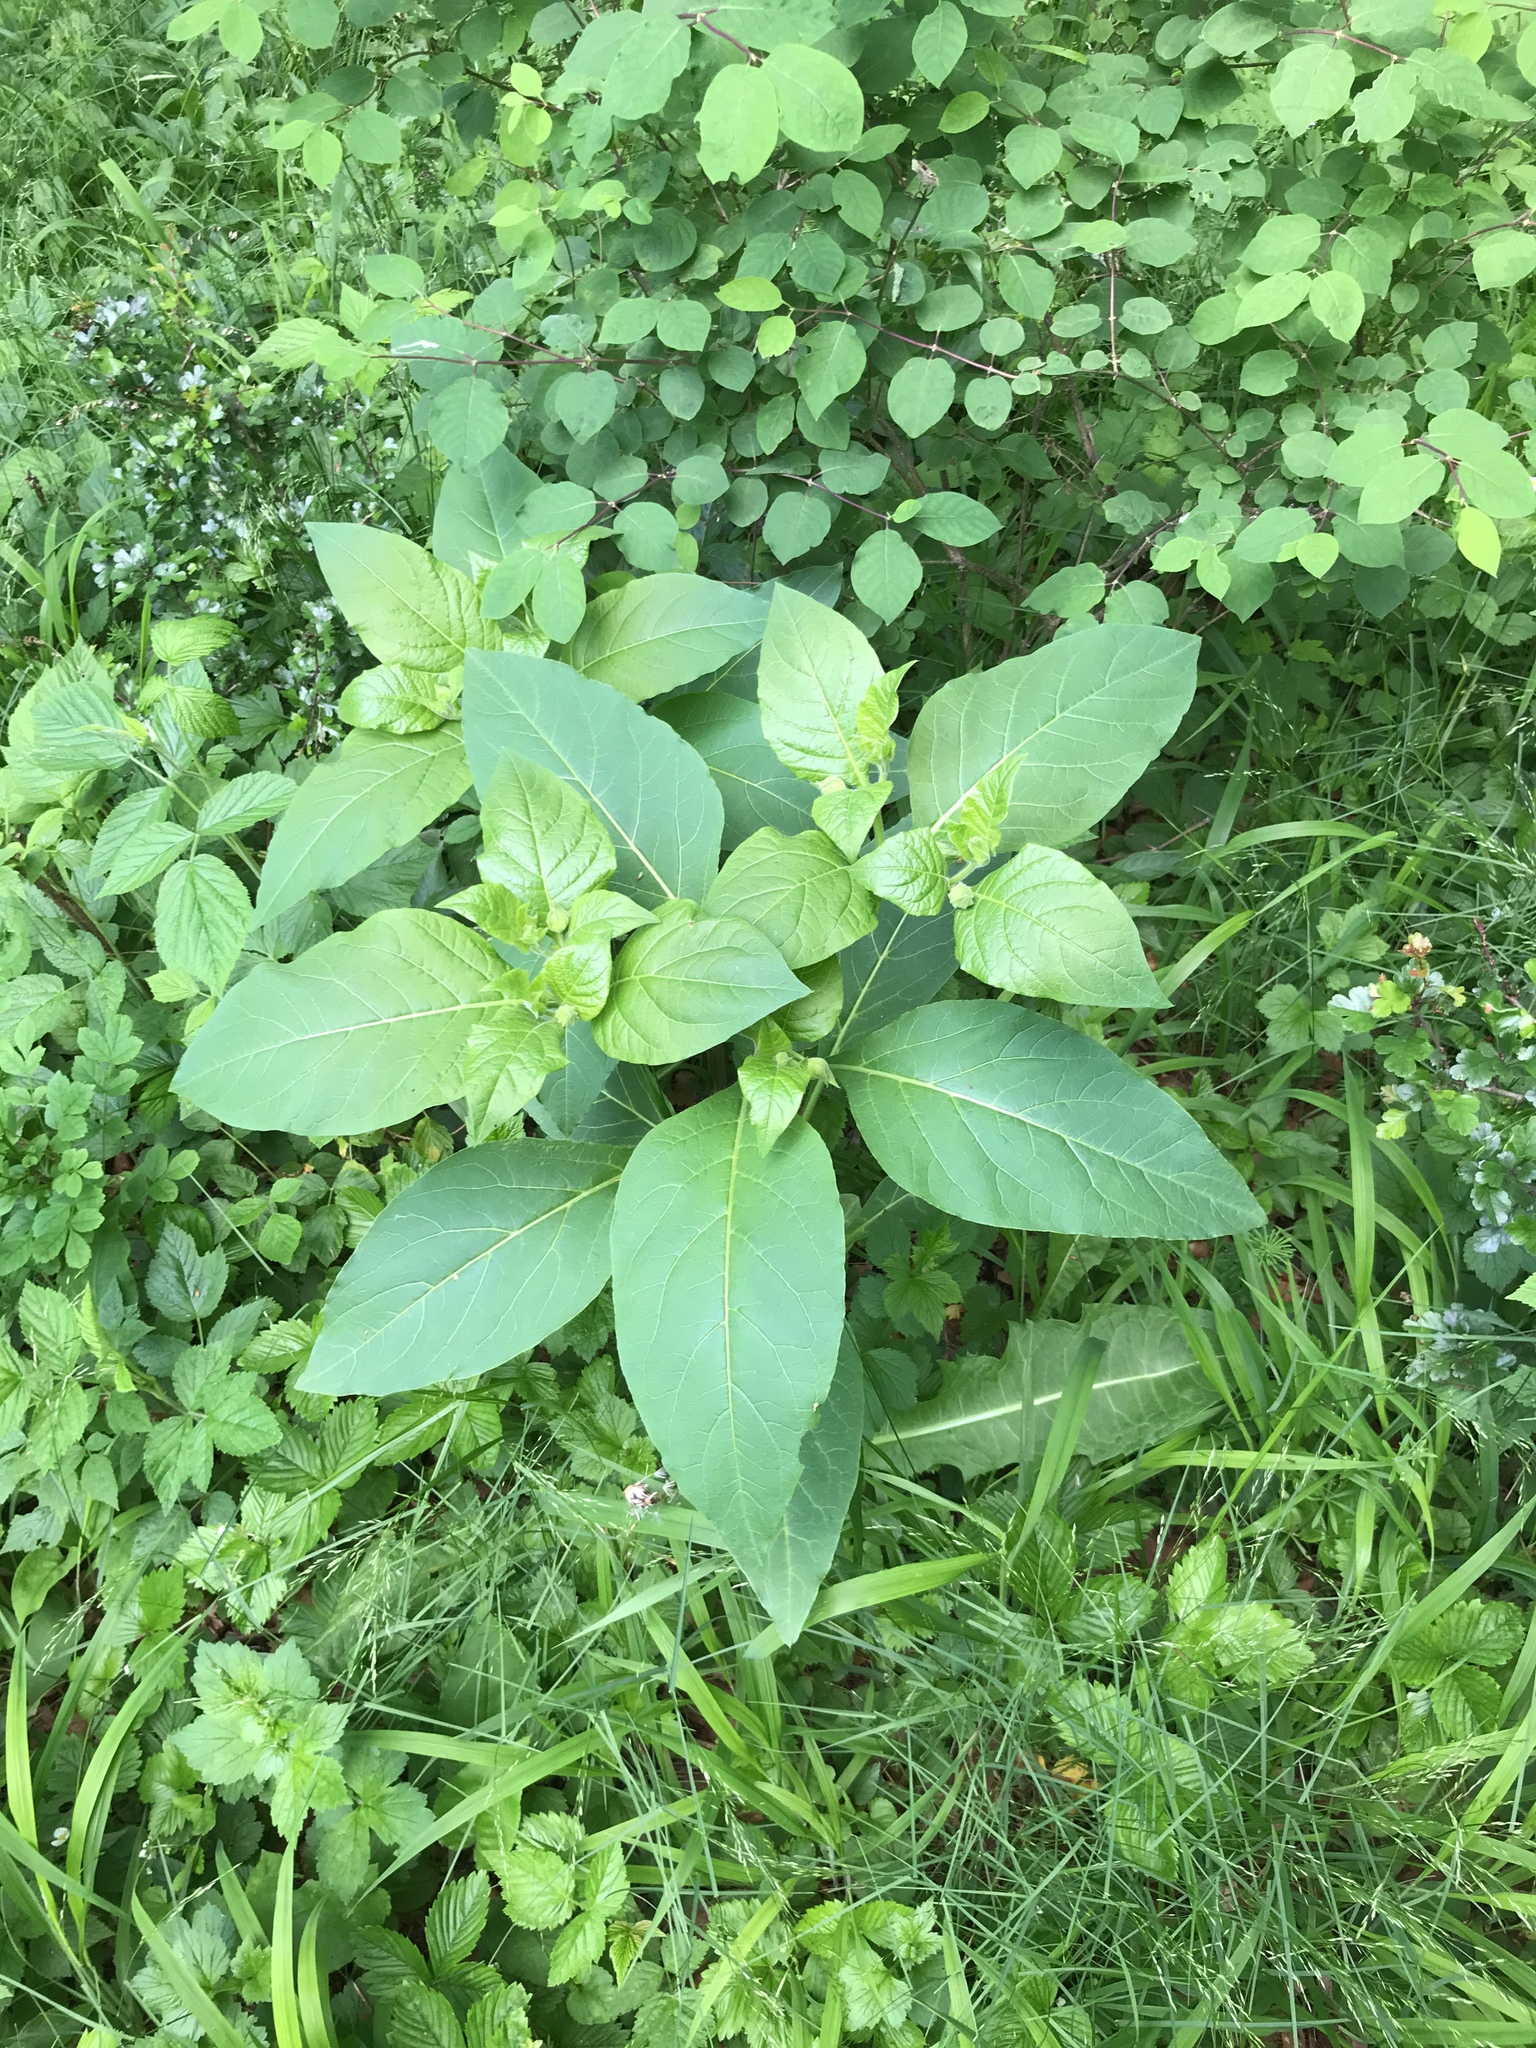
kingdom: Plantae
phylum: Tracheophyta
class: Magnoliopsida
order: Solanales
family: Solanaceae
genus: Atropa
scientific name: Atropa belladonna
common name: Deadly nightshade
